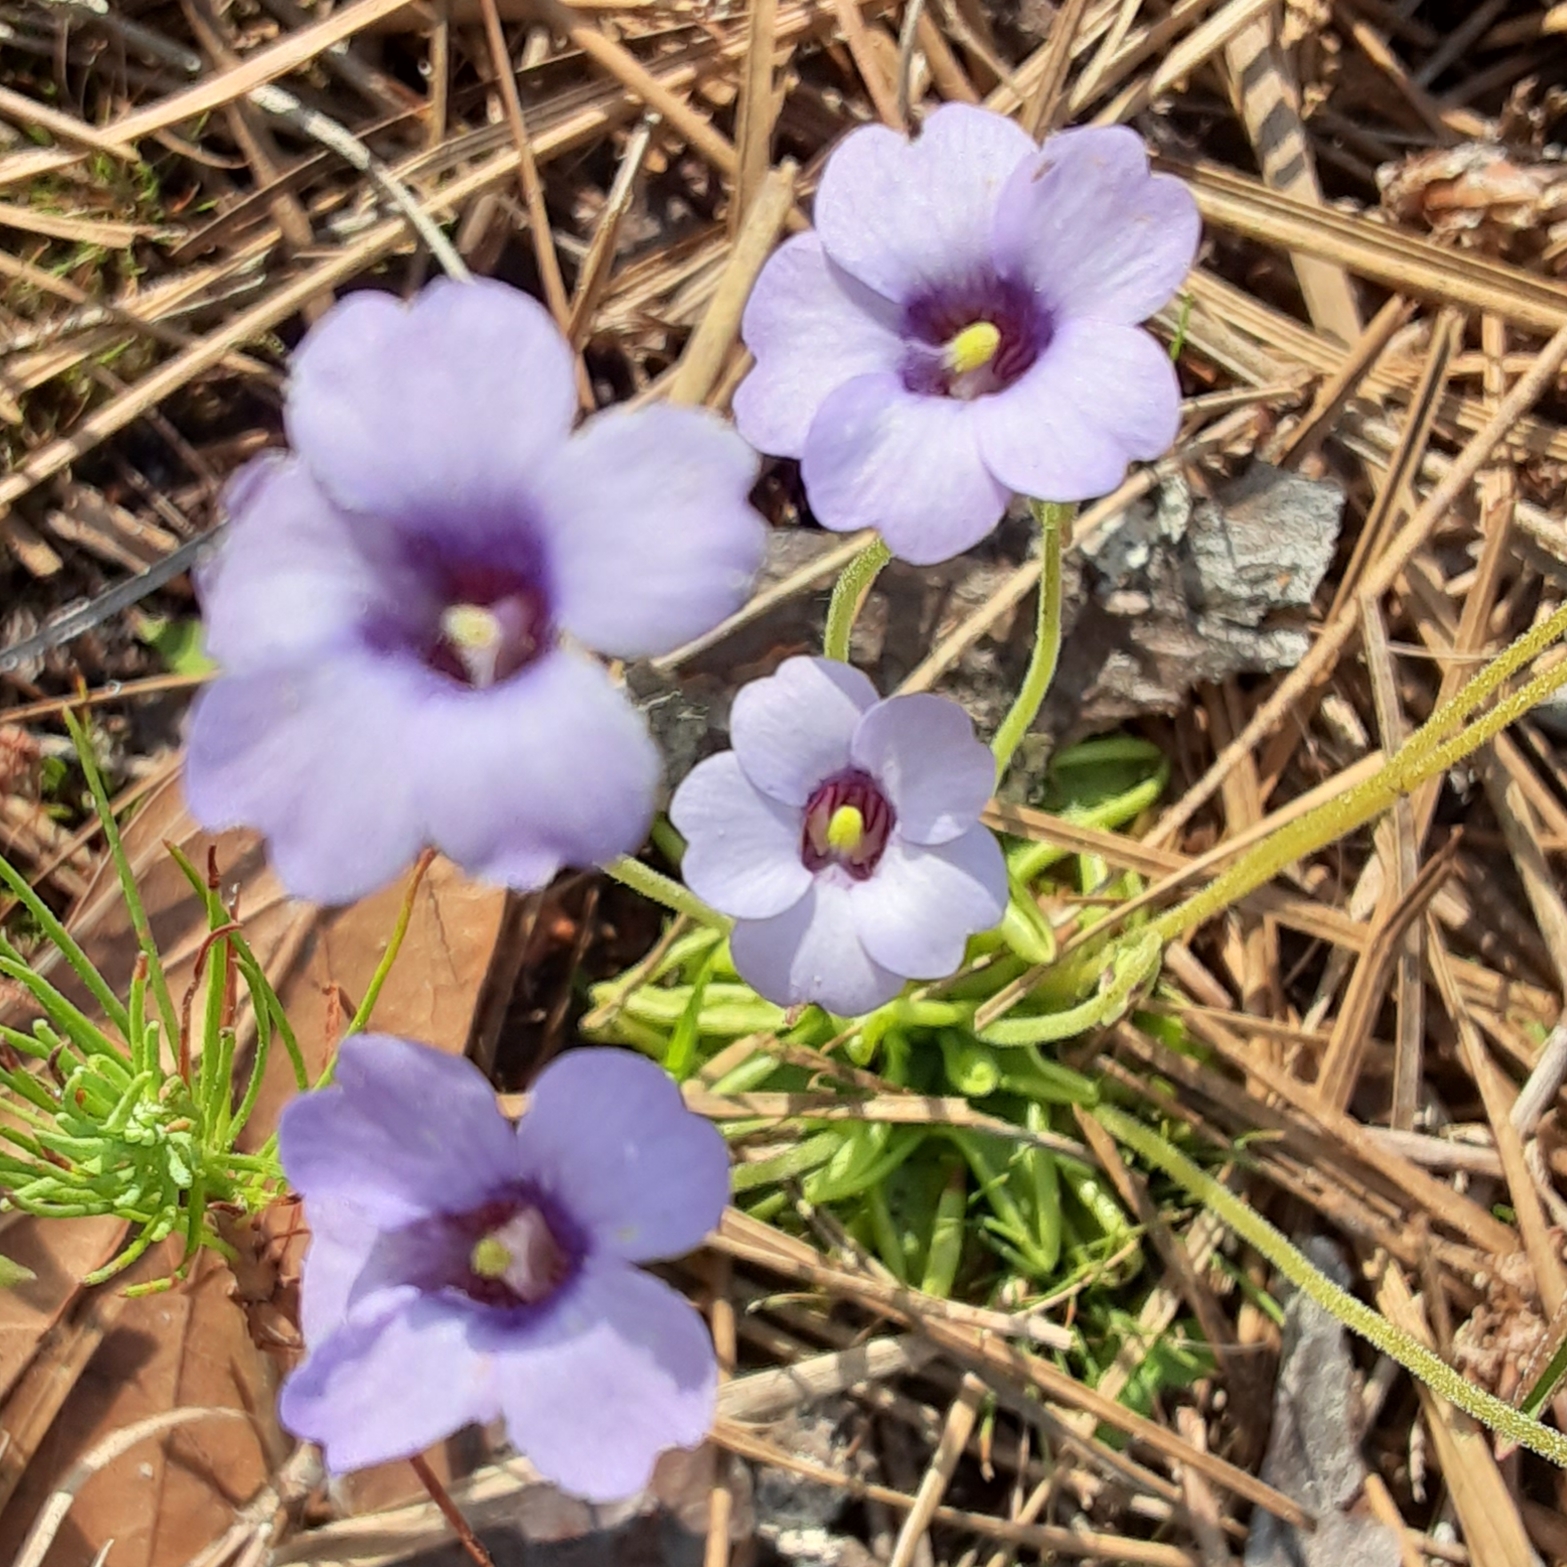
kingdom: Plantae
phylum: Tracheophyta
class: Magnoliopsida
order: Lamiales
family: Lentibulariaceae
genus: Pinguicula
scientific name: Pinguicula pumila
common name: Small butterwort
